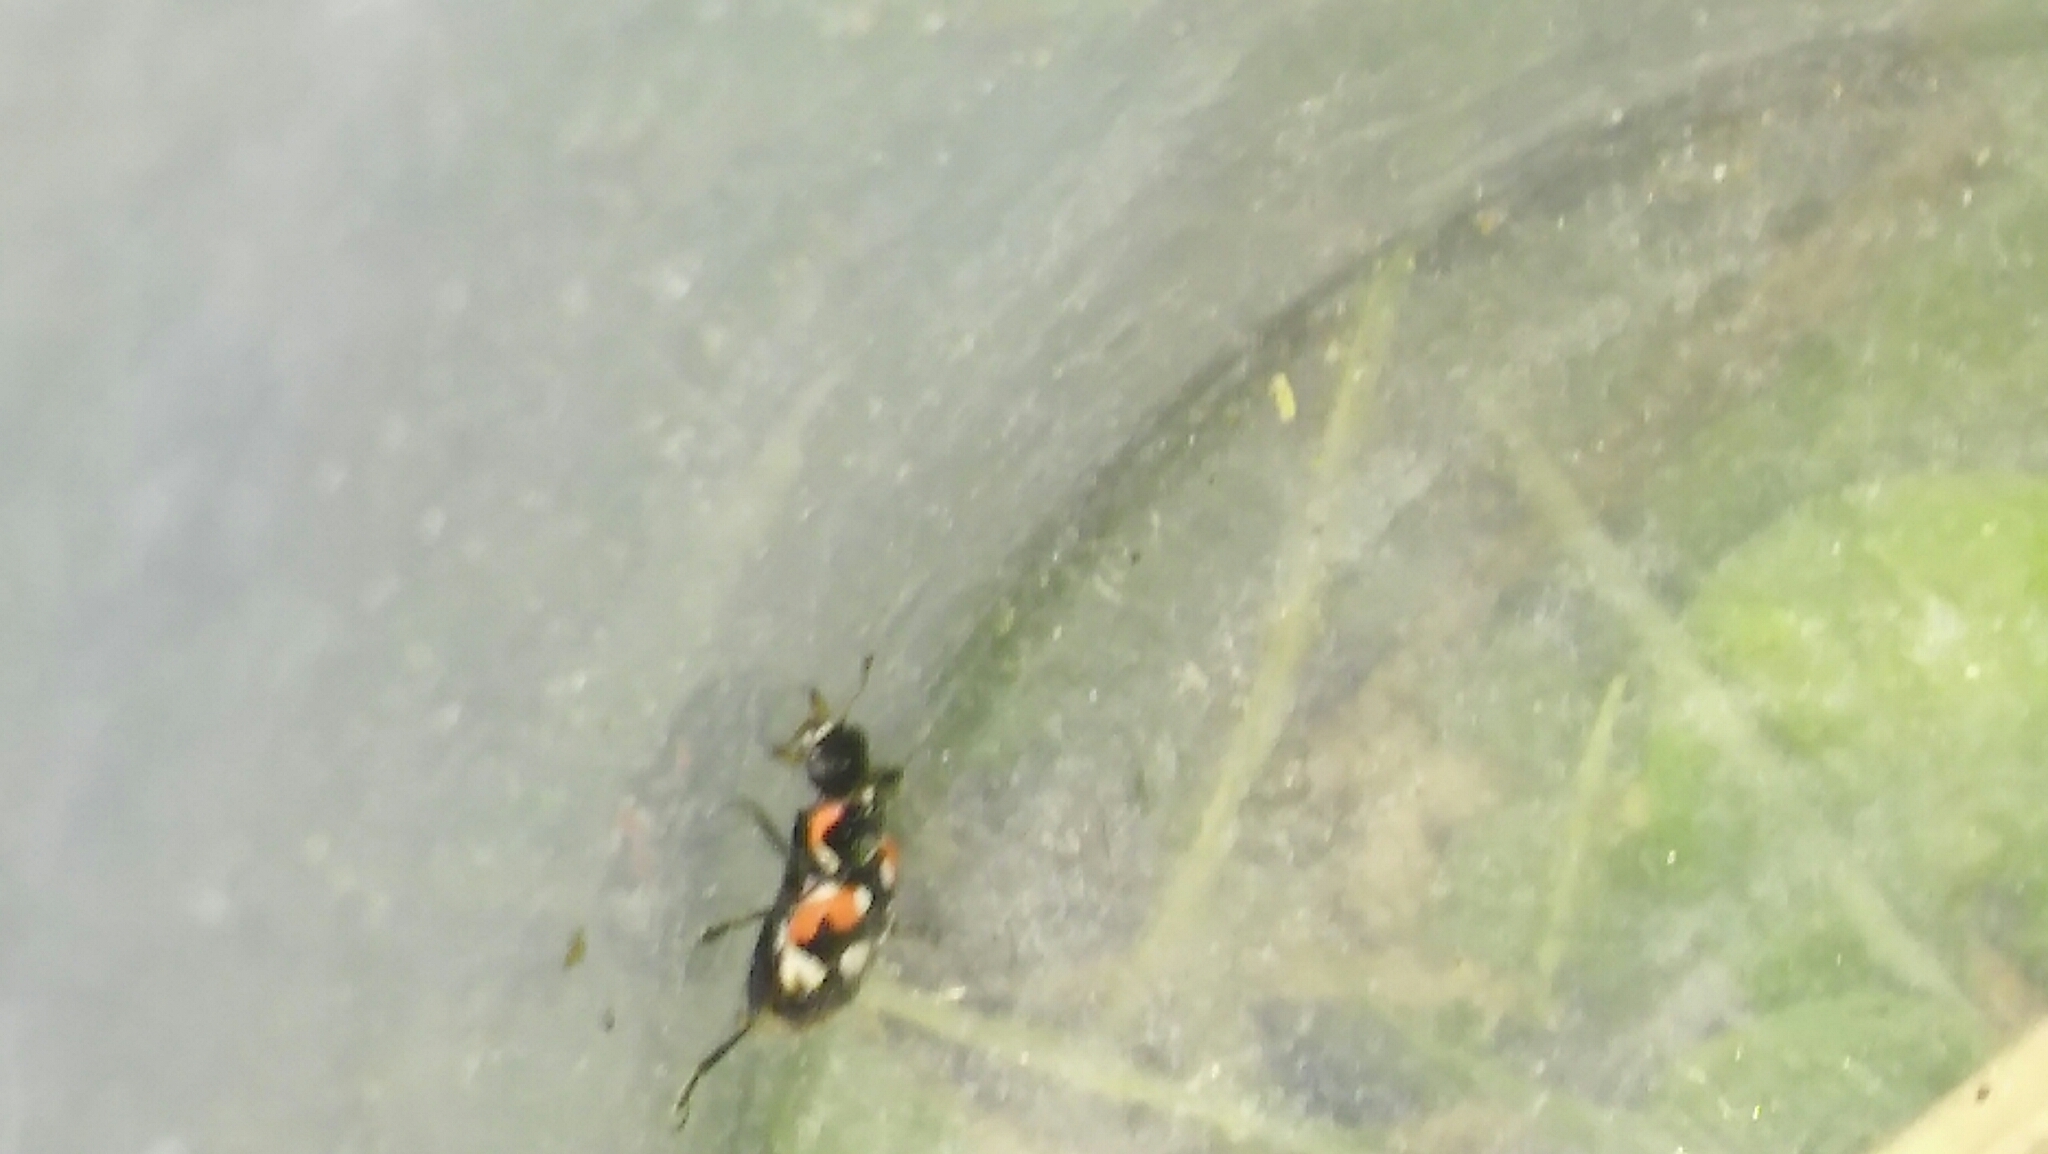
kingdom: Animalia
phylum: Arthropoda
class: Insecta
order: Coleoptera
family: Coccinellidae
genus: Eriopis
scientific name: Eriopis connexa
